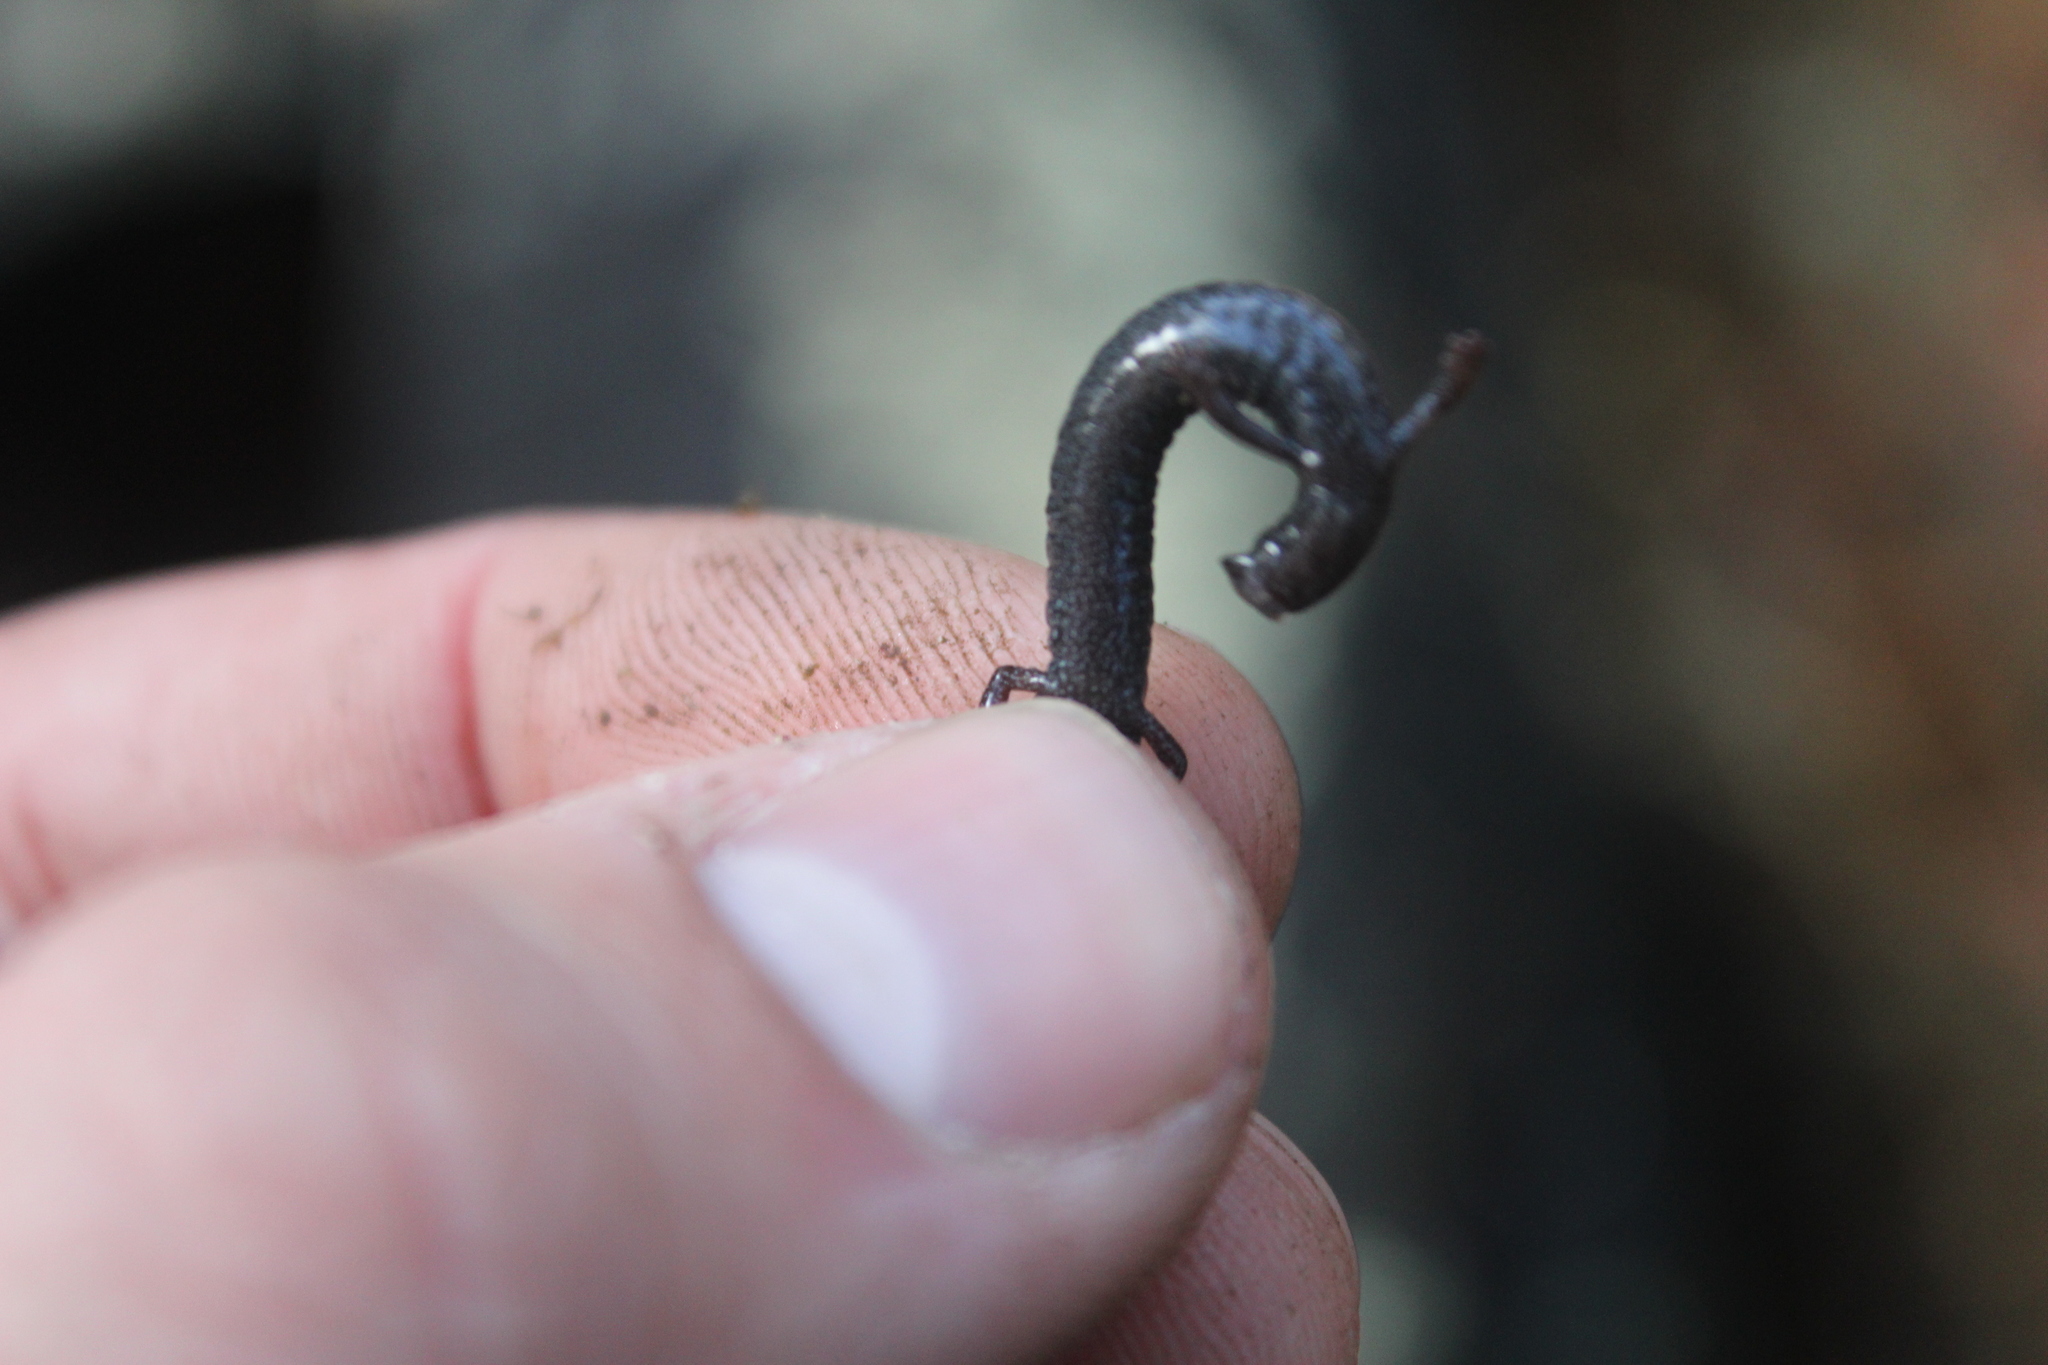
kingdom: Animalia
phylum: Chordata
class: Amphibia
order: Caudata
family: Plethodontidae
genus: Batrachoseps
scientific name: Batrachoseps nigriventris
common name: Black-bellied slender salamander
